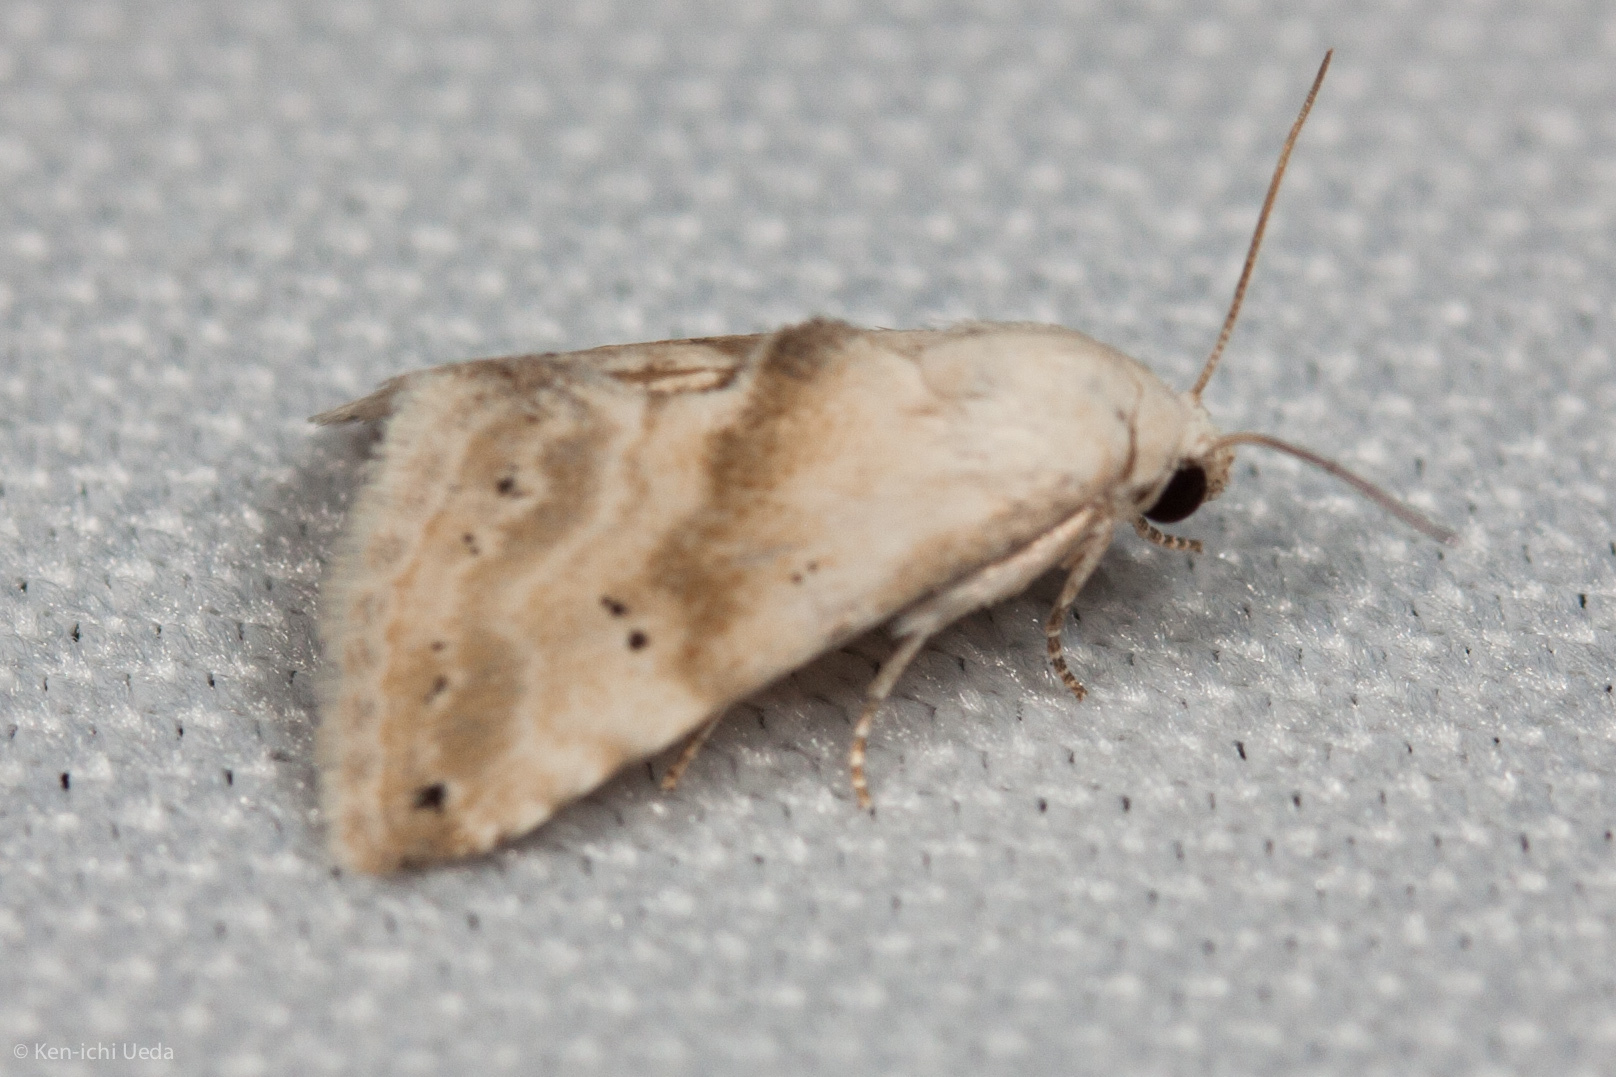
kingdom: Animalia
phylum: Arthropoda
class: Insecta
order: Lepidoptera
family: Noctuidae
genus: Eublemma
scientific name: Eublemma minima
